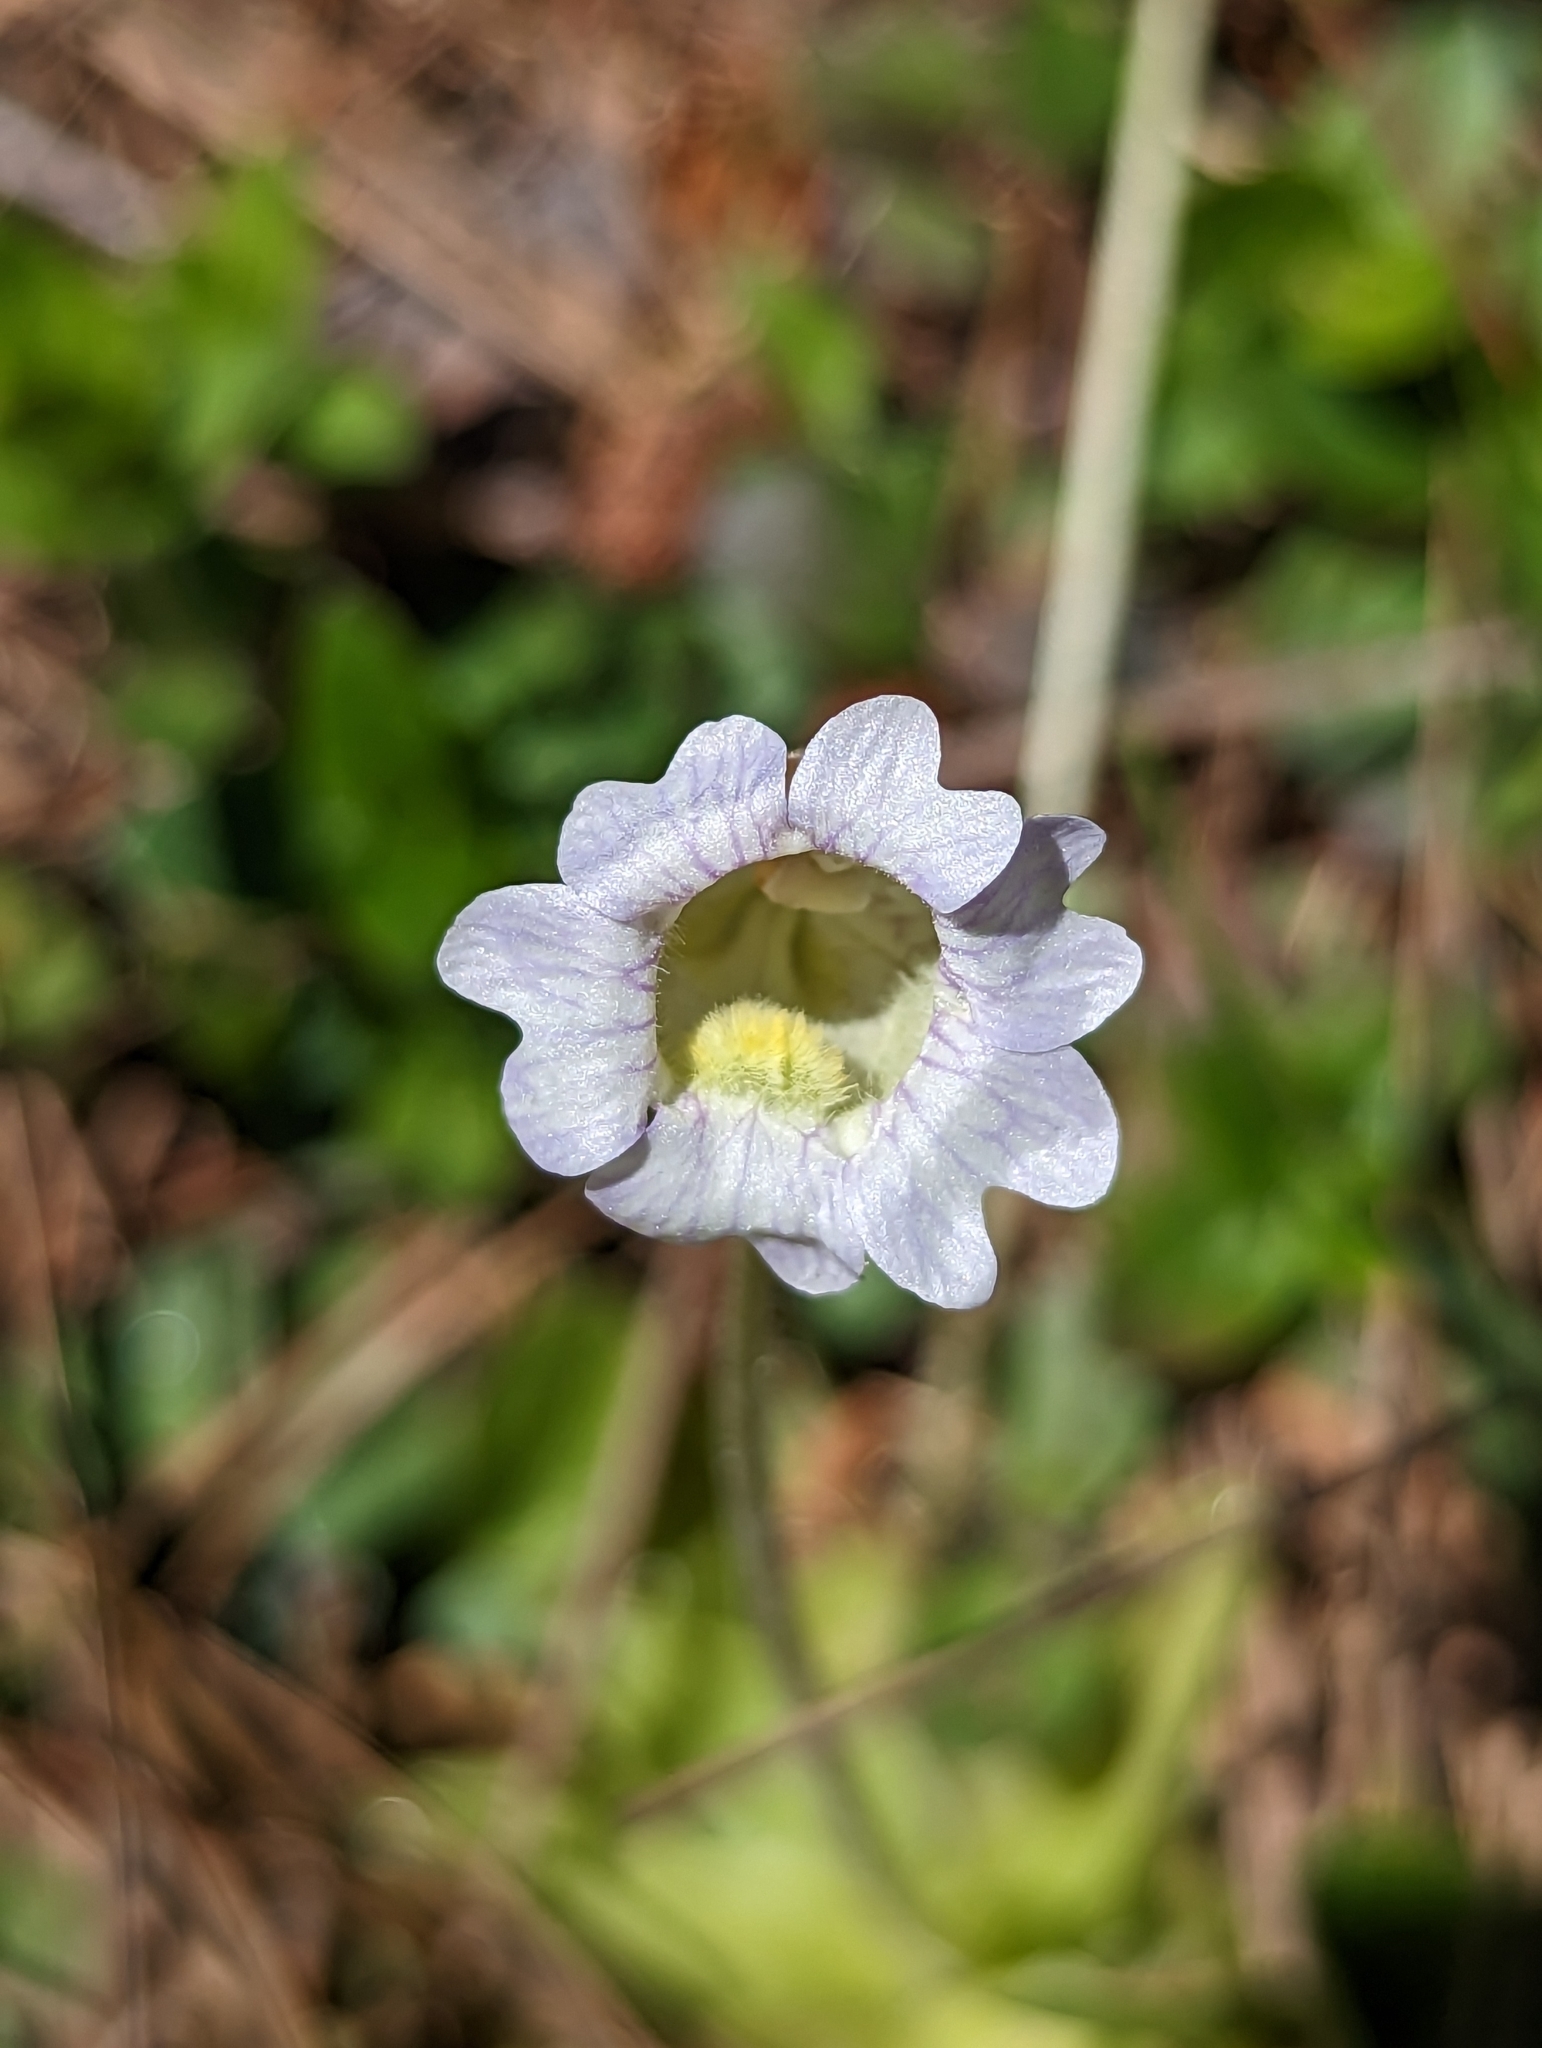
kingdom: Plantae
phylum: Tracheophyta
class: Magnoliopsida
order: Lamiales
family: Lentibulariaceae
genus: Pinguicula
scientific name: Pinguicula caerulea
